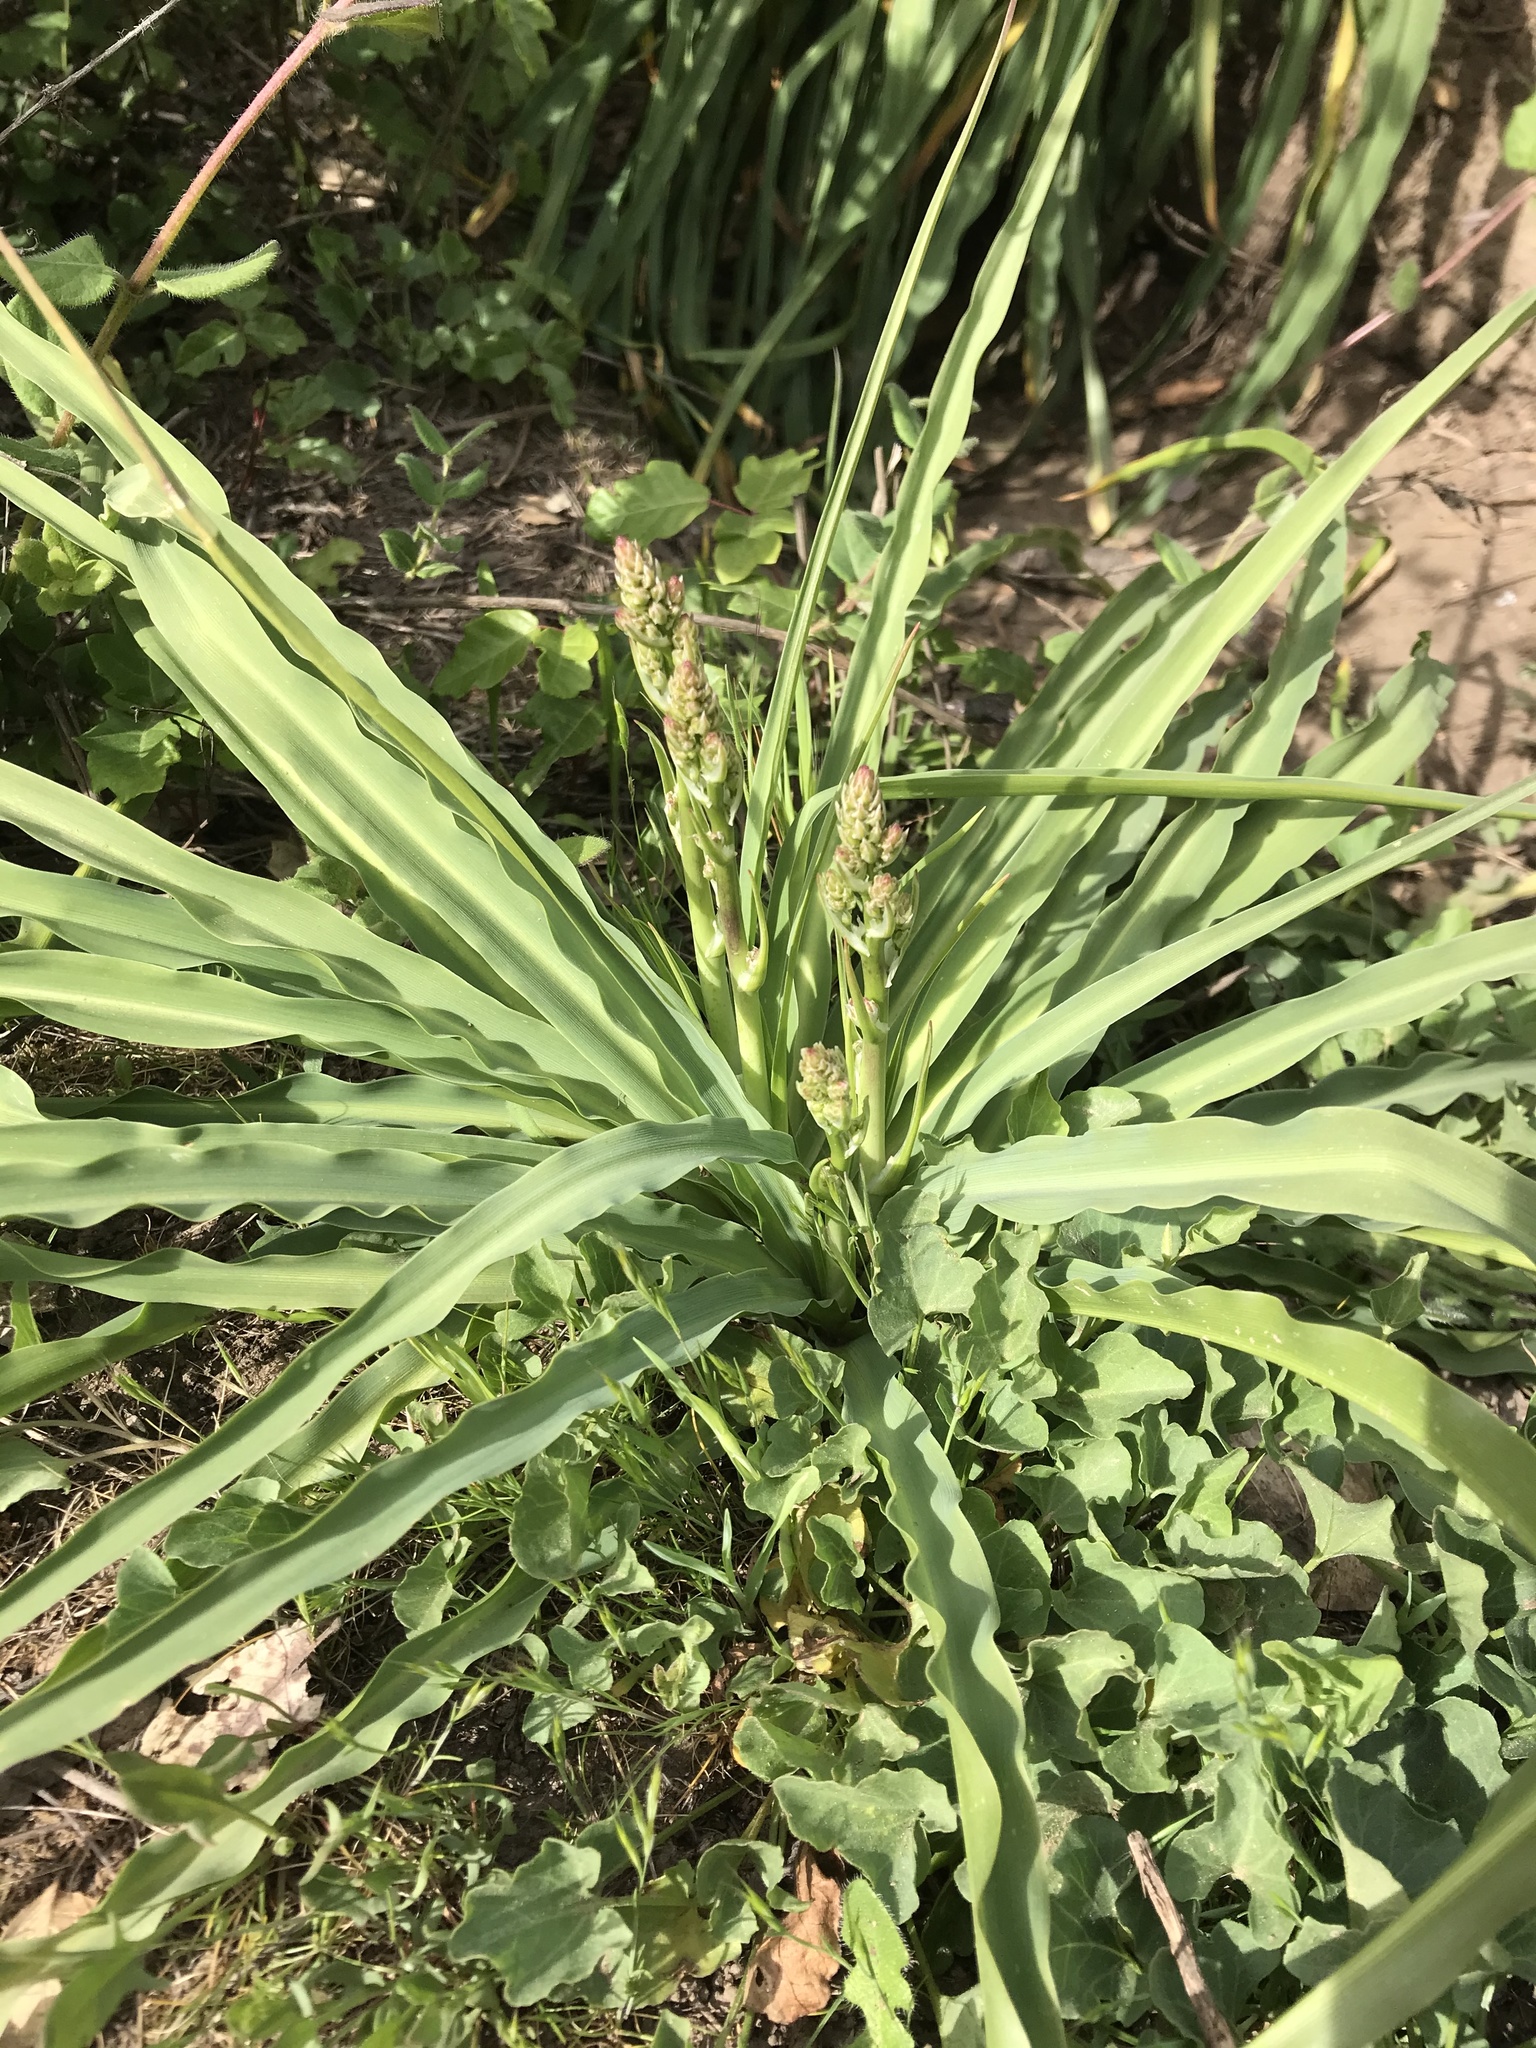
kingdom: Plantae
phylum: Tracheophyta
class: Liliopsida
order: Asparagales
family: Asparagaceae
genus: Chlorogalum
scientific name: Chlorogalum pomeridianum
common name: Amole
